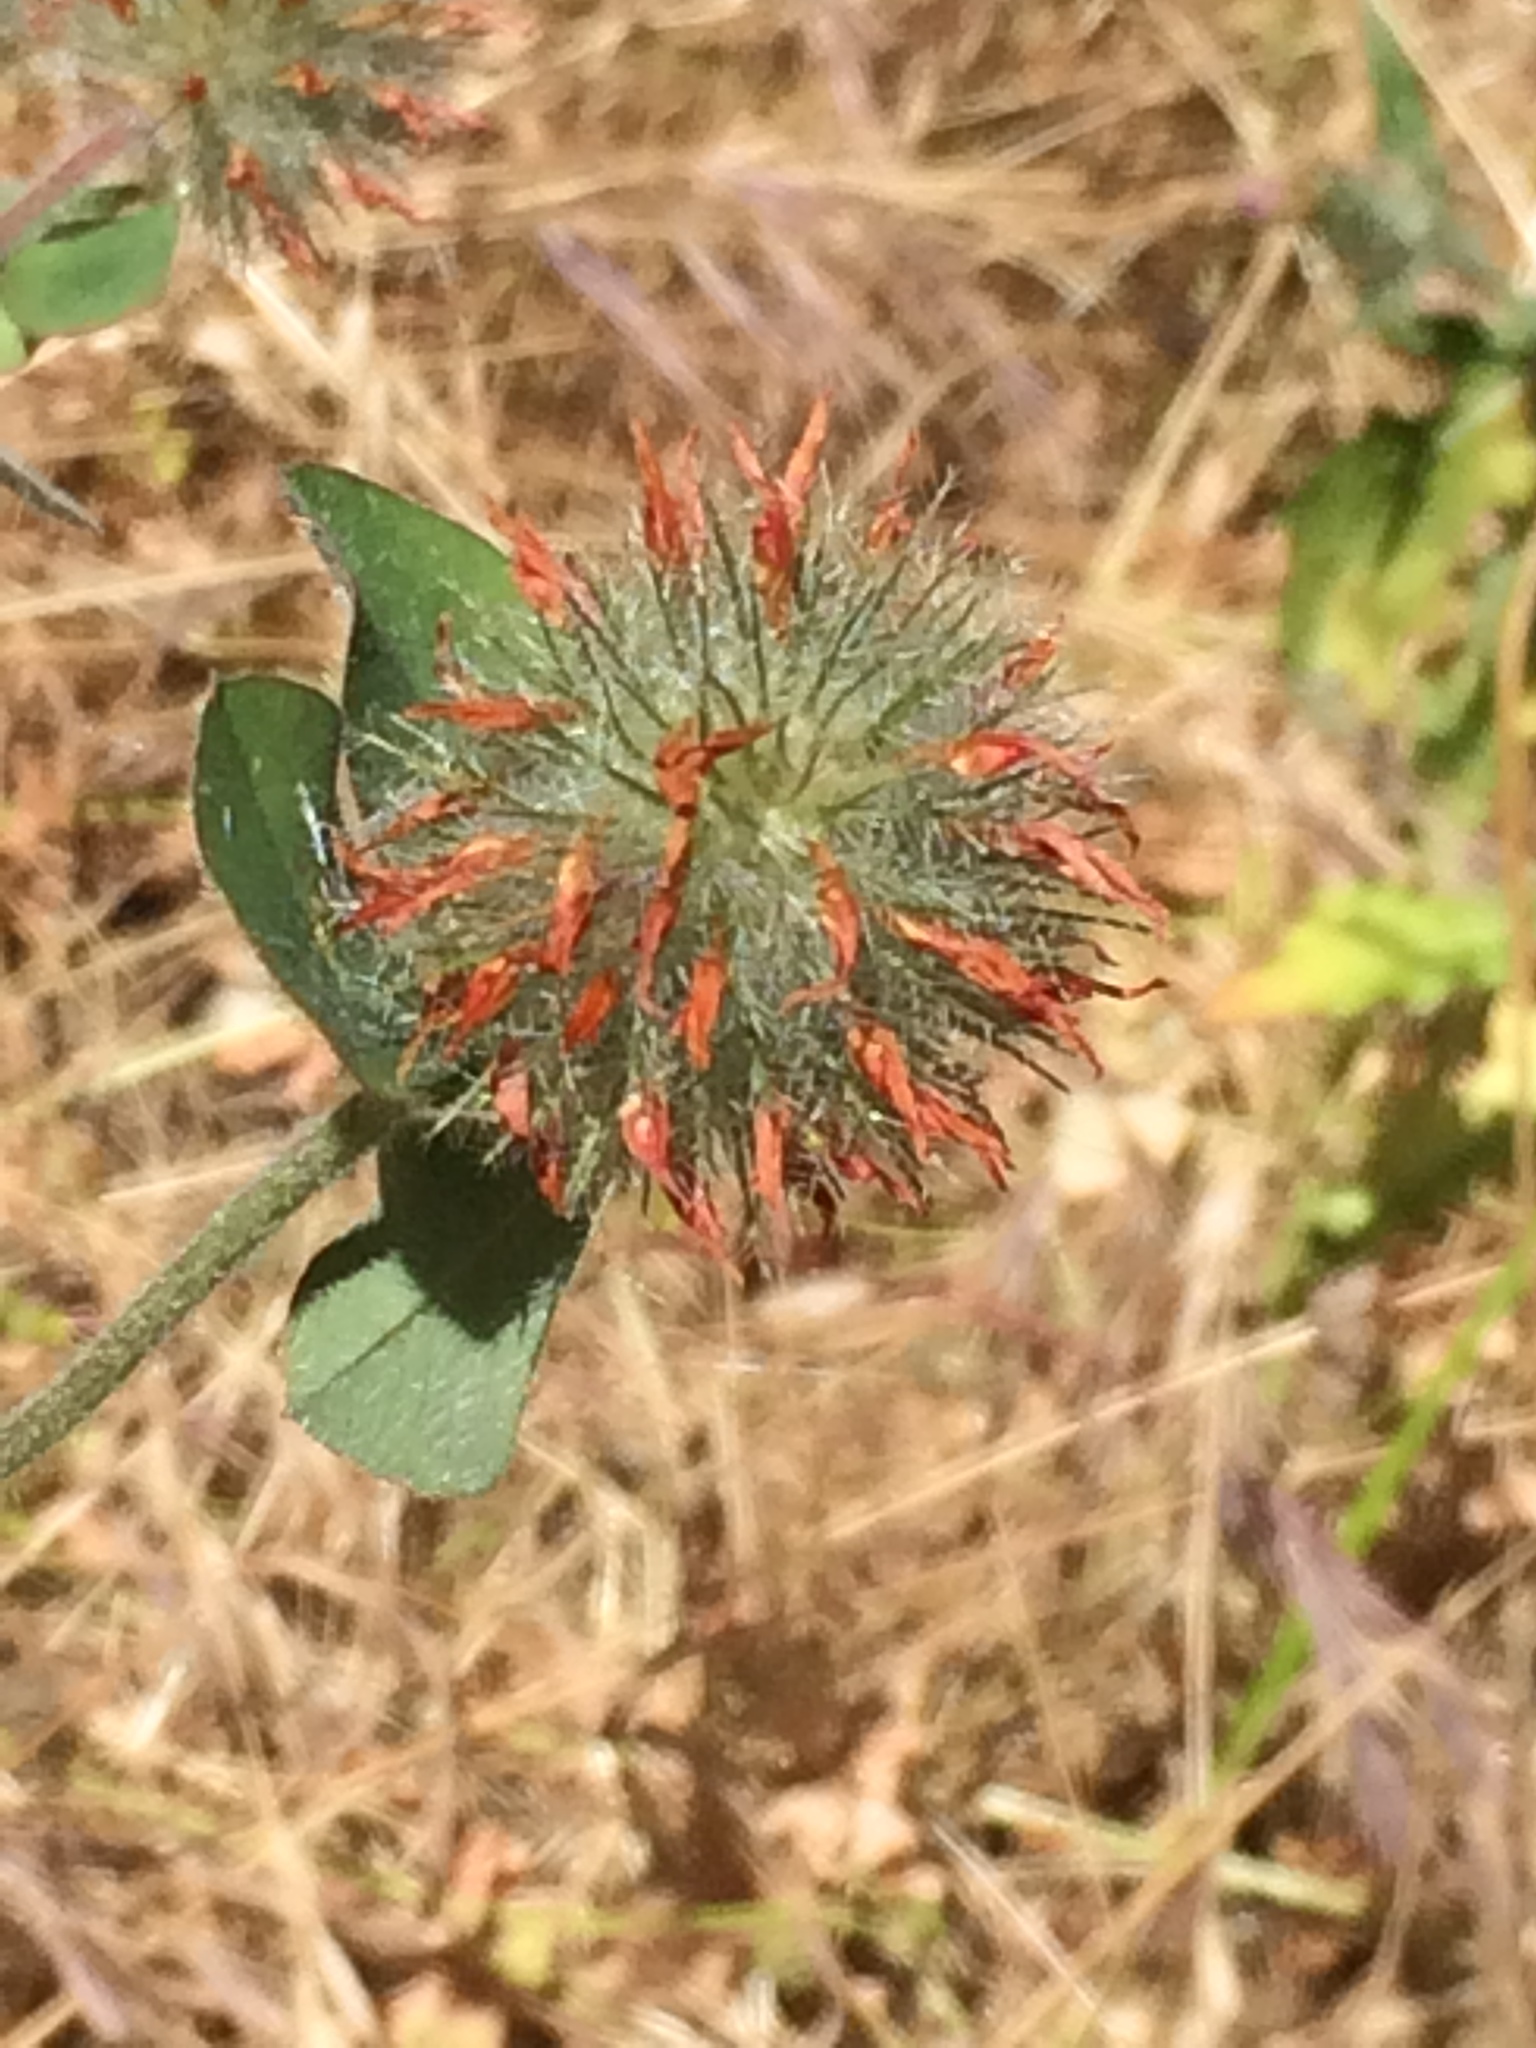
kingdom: Plantae
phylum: Tracheophyta
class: Magnoliopsida
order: Fabales
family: Fabaceae
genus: Trifolium
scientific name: Trifolium hirtum
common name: Rose clover
